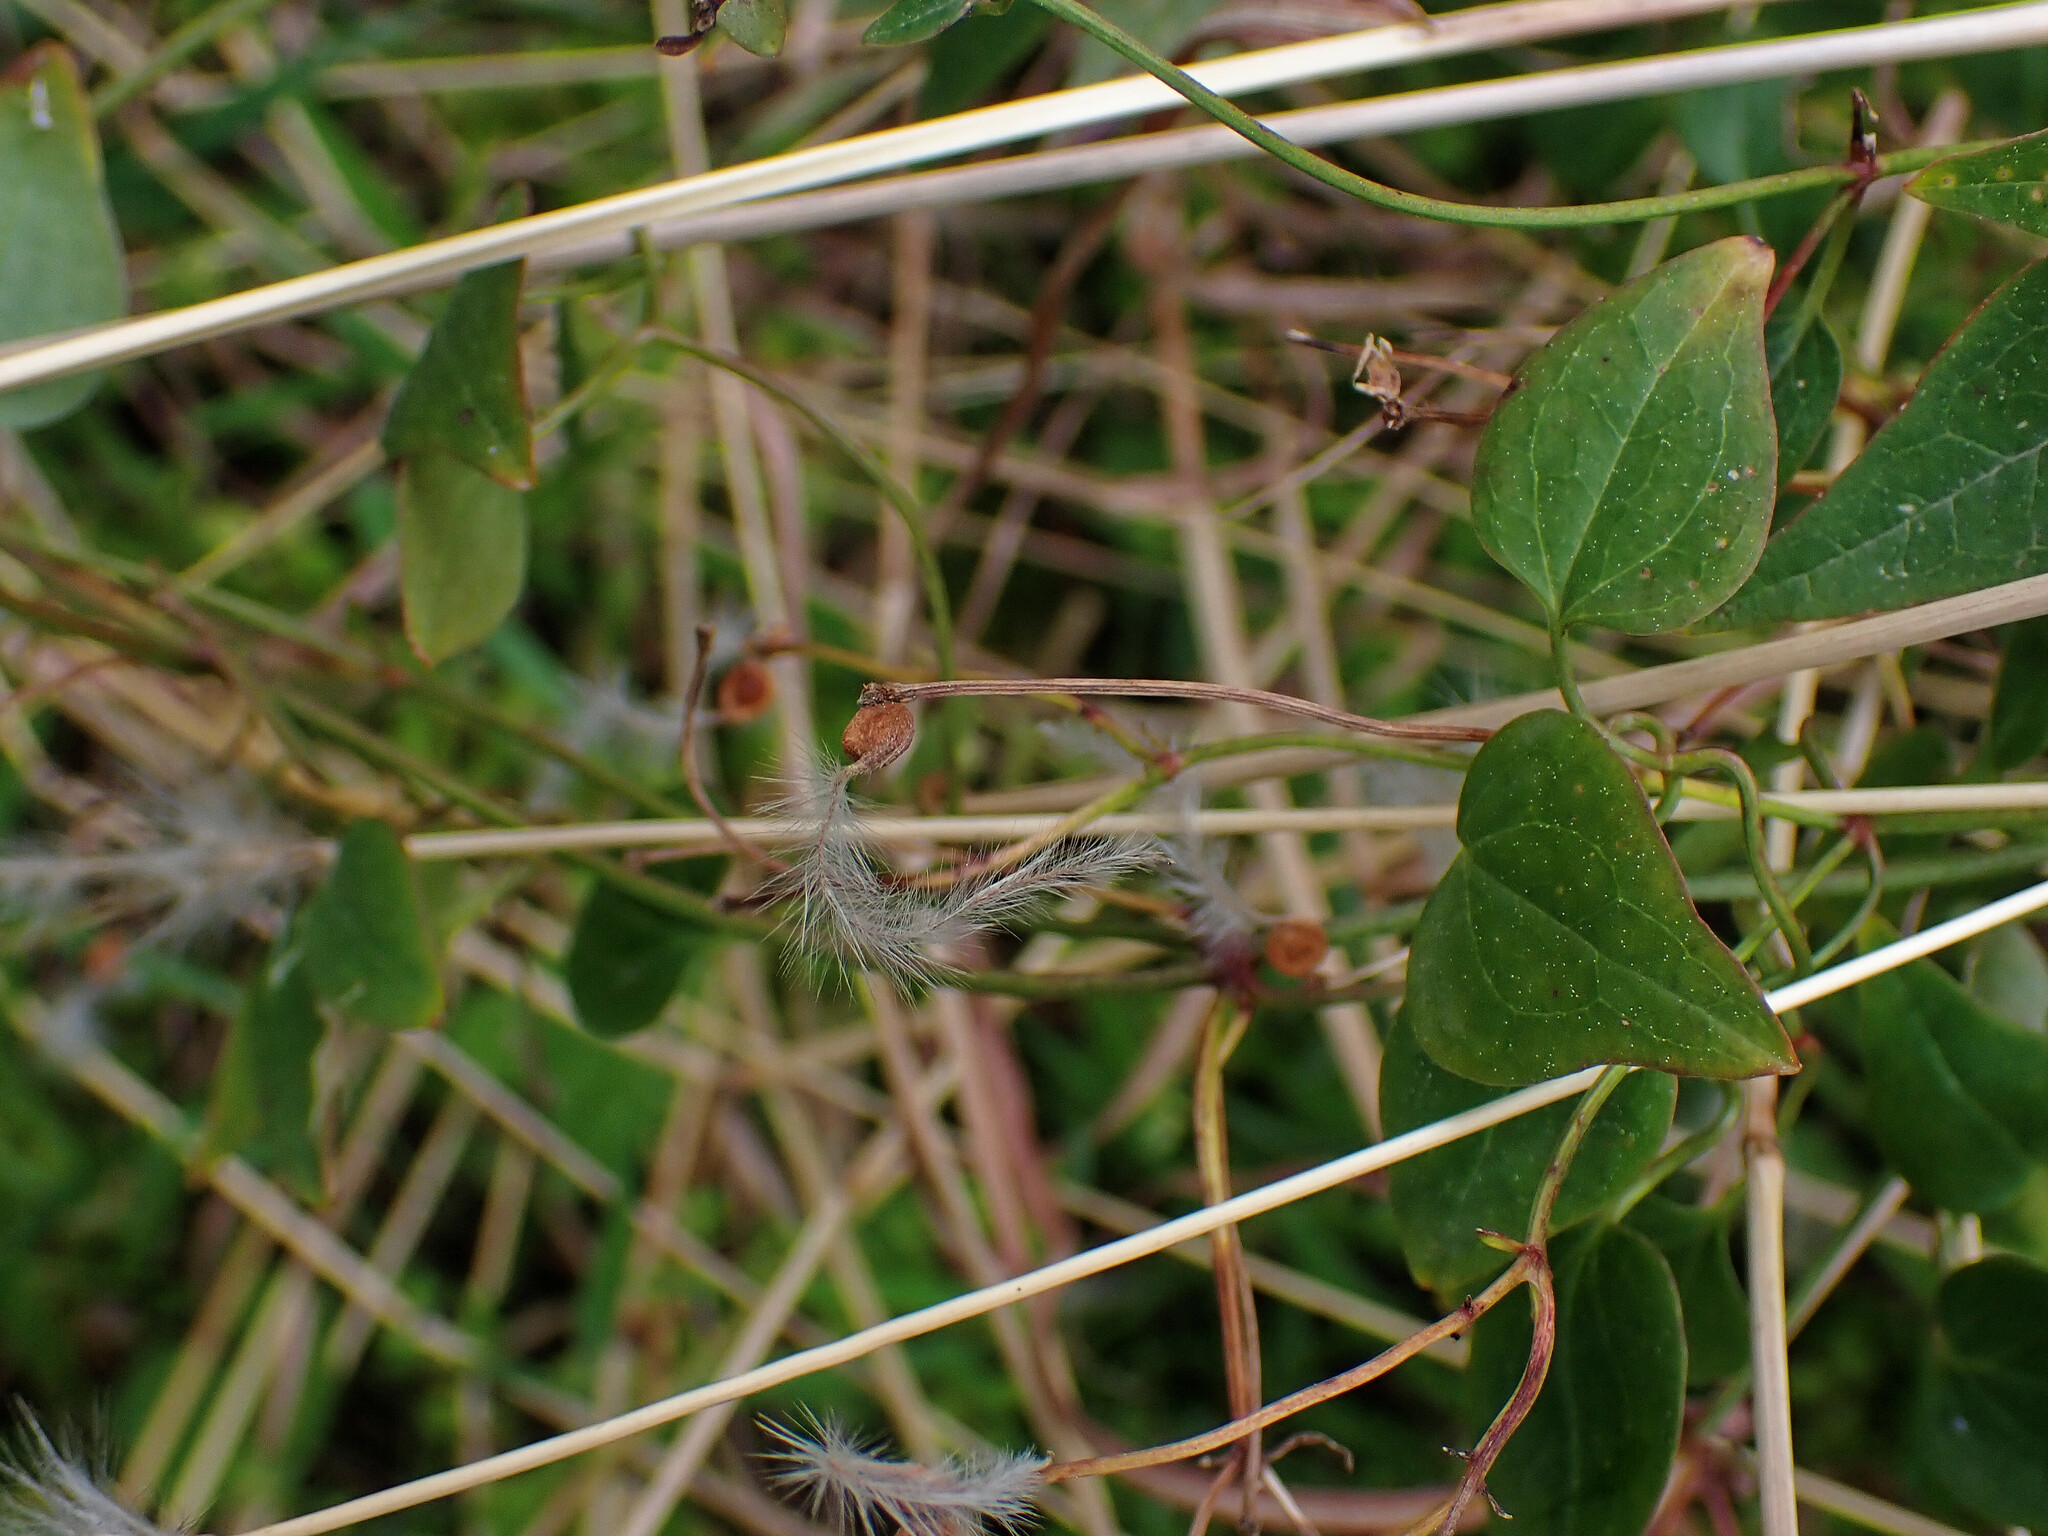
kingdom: Plantae
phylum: Tracheophyta
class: Magnoliopsida
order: Ranunculales
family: Ranunculaceae
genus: Clematis
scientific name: Clematis flammula
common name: Virgin's-bower
